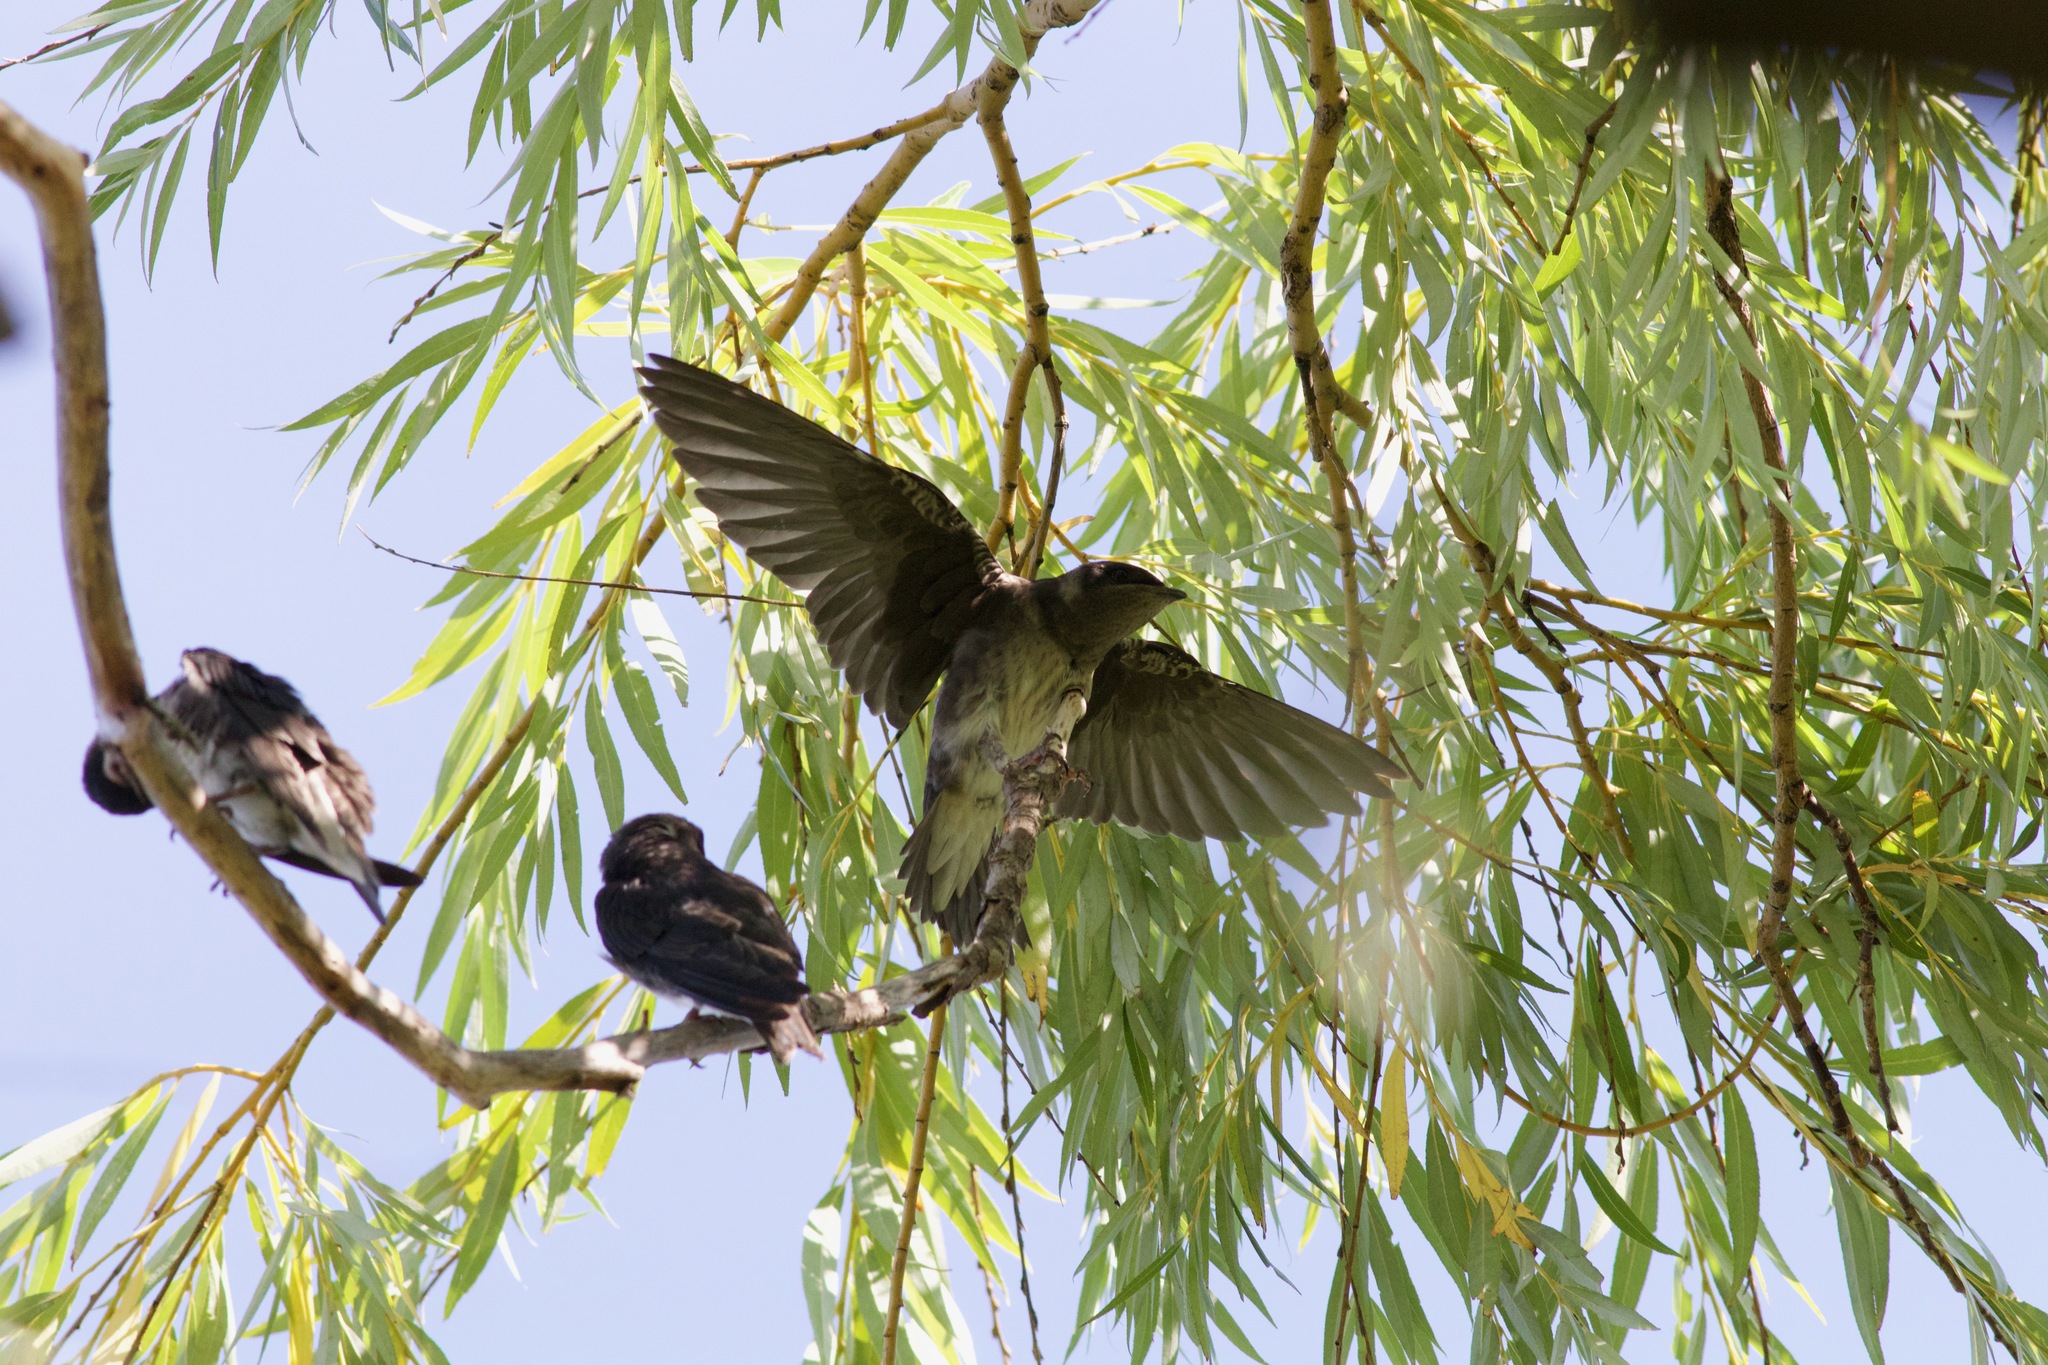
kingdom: Animalia
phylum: Chordata
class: Aves
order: Passeriformes
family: Hirundinidae
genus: Progne
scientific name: Progne subis
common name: Purple martin
